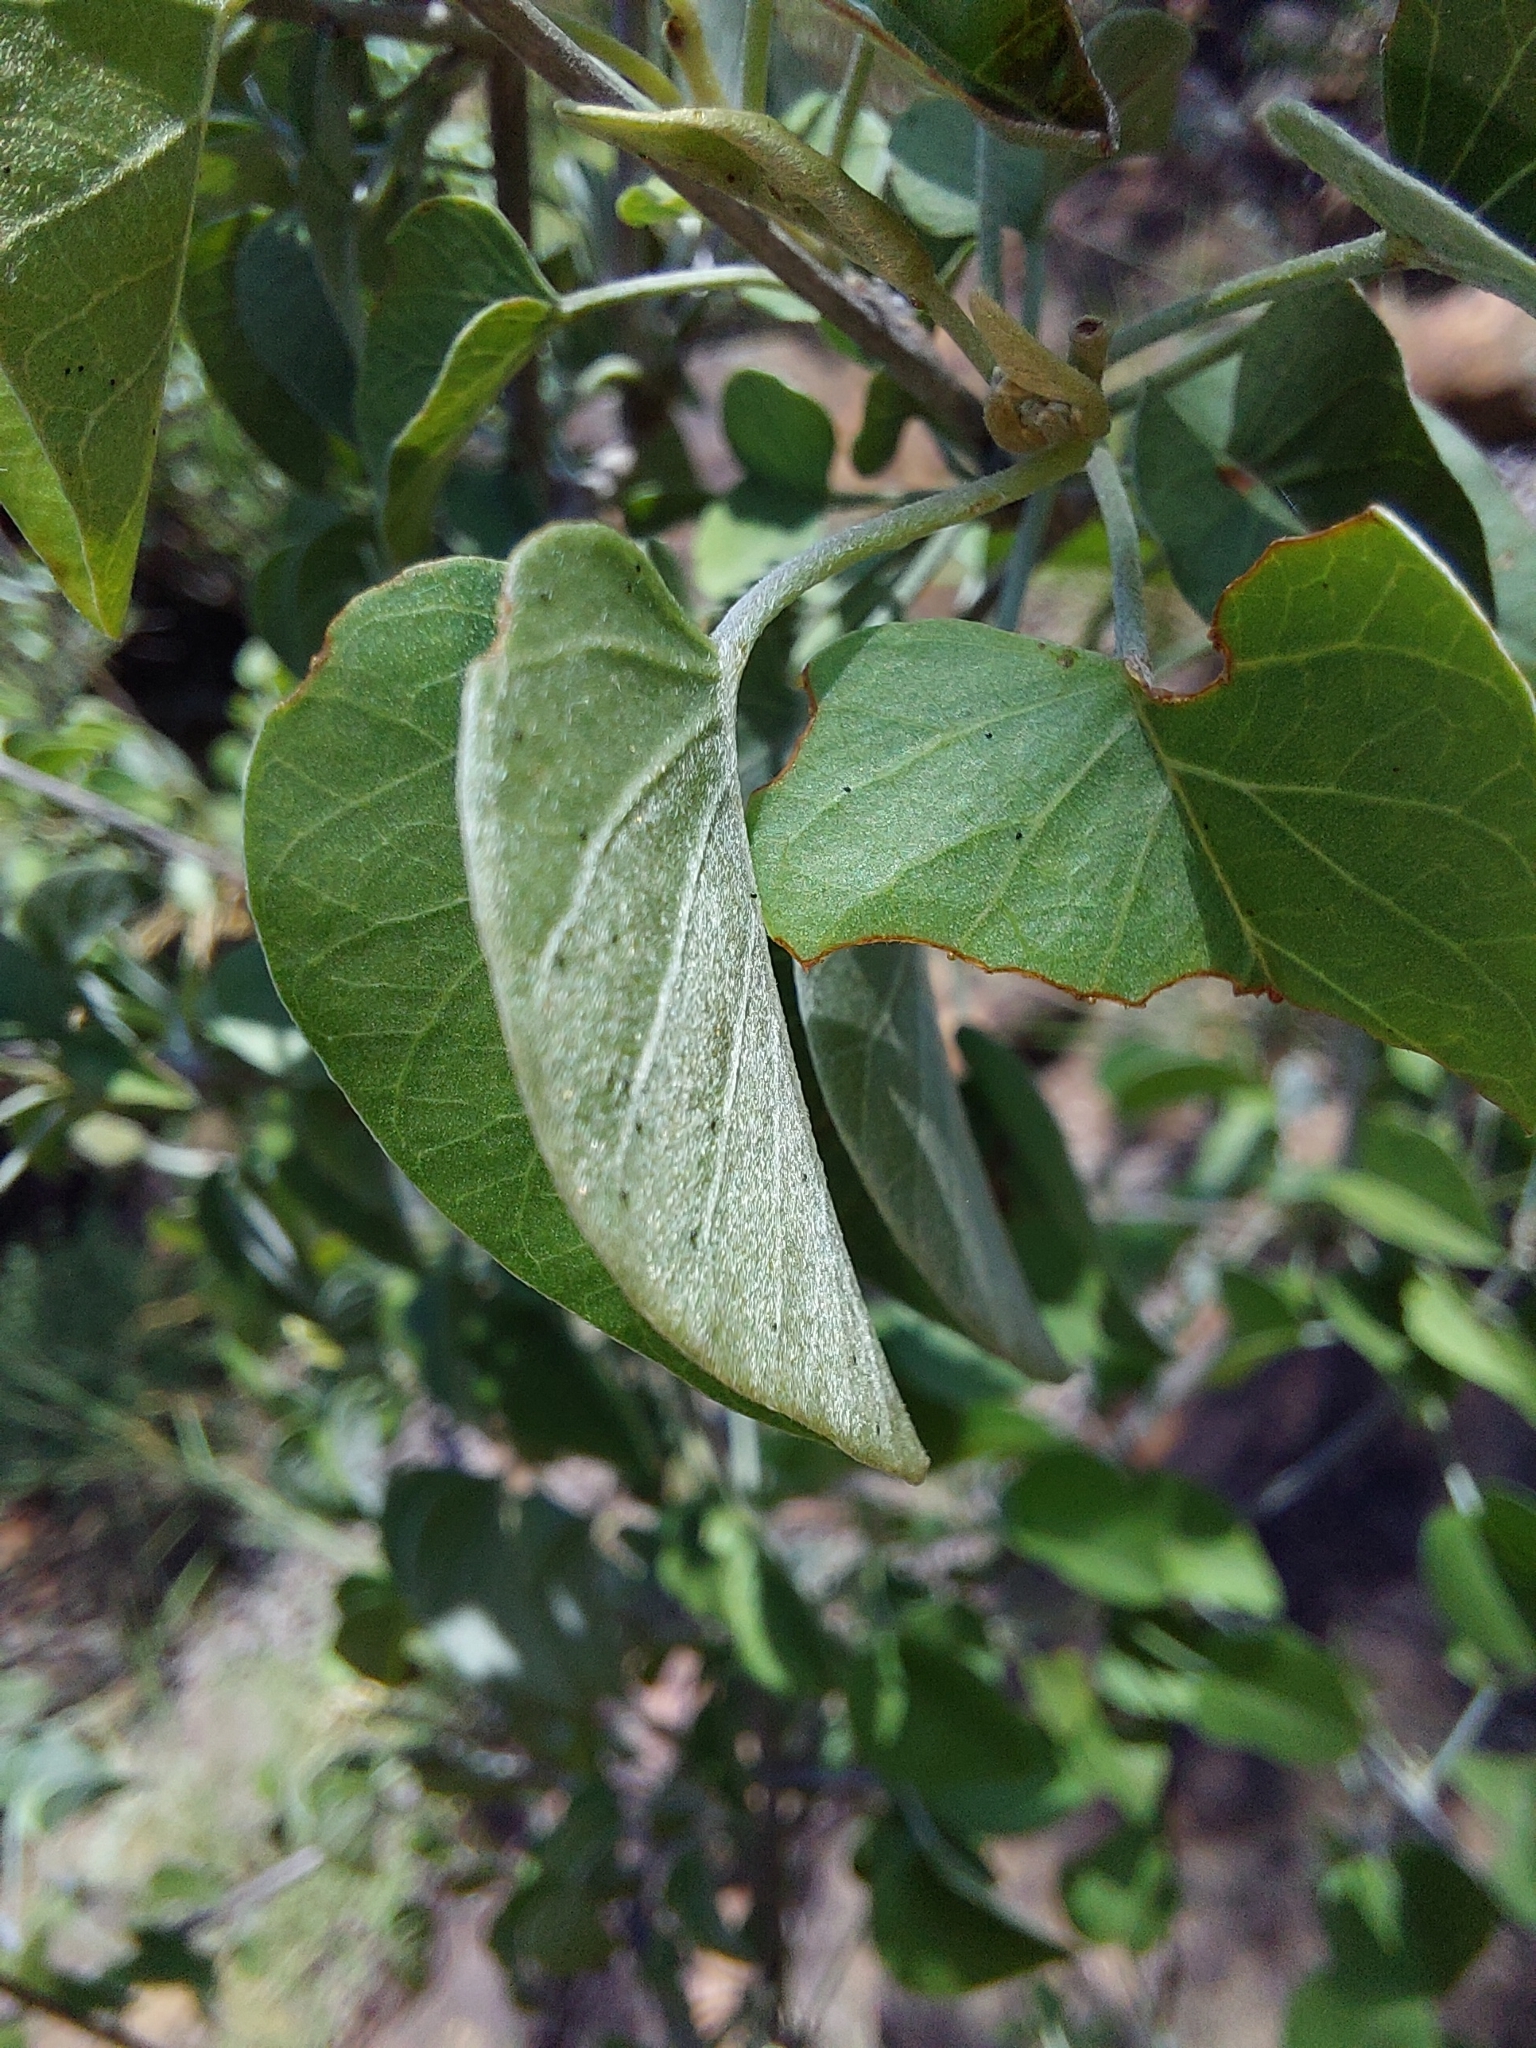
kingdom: Plantae
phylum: Tracheophyta
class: Magnoliopsida
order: Solanales
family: Convolvulaceae
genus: Ipomoea
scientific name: Ipomoea holubii
